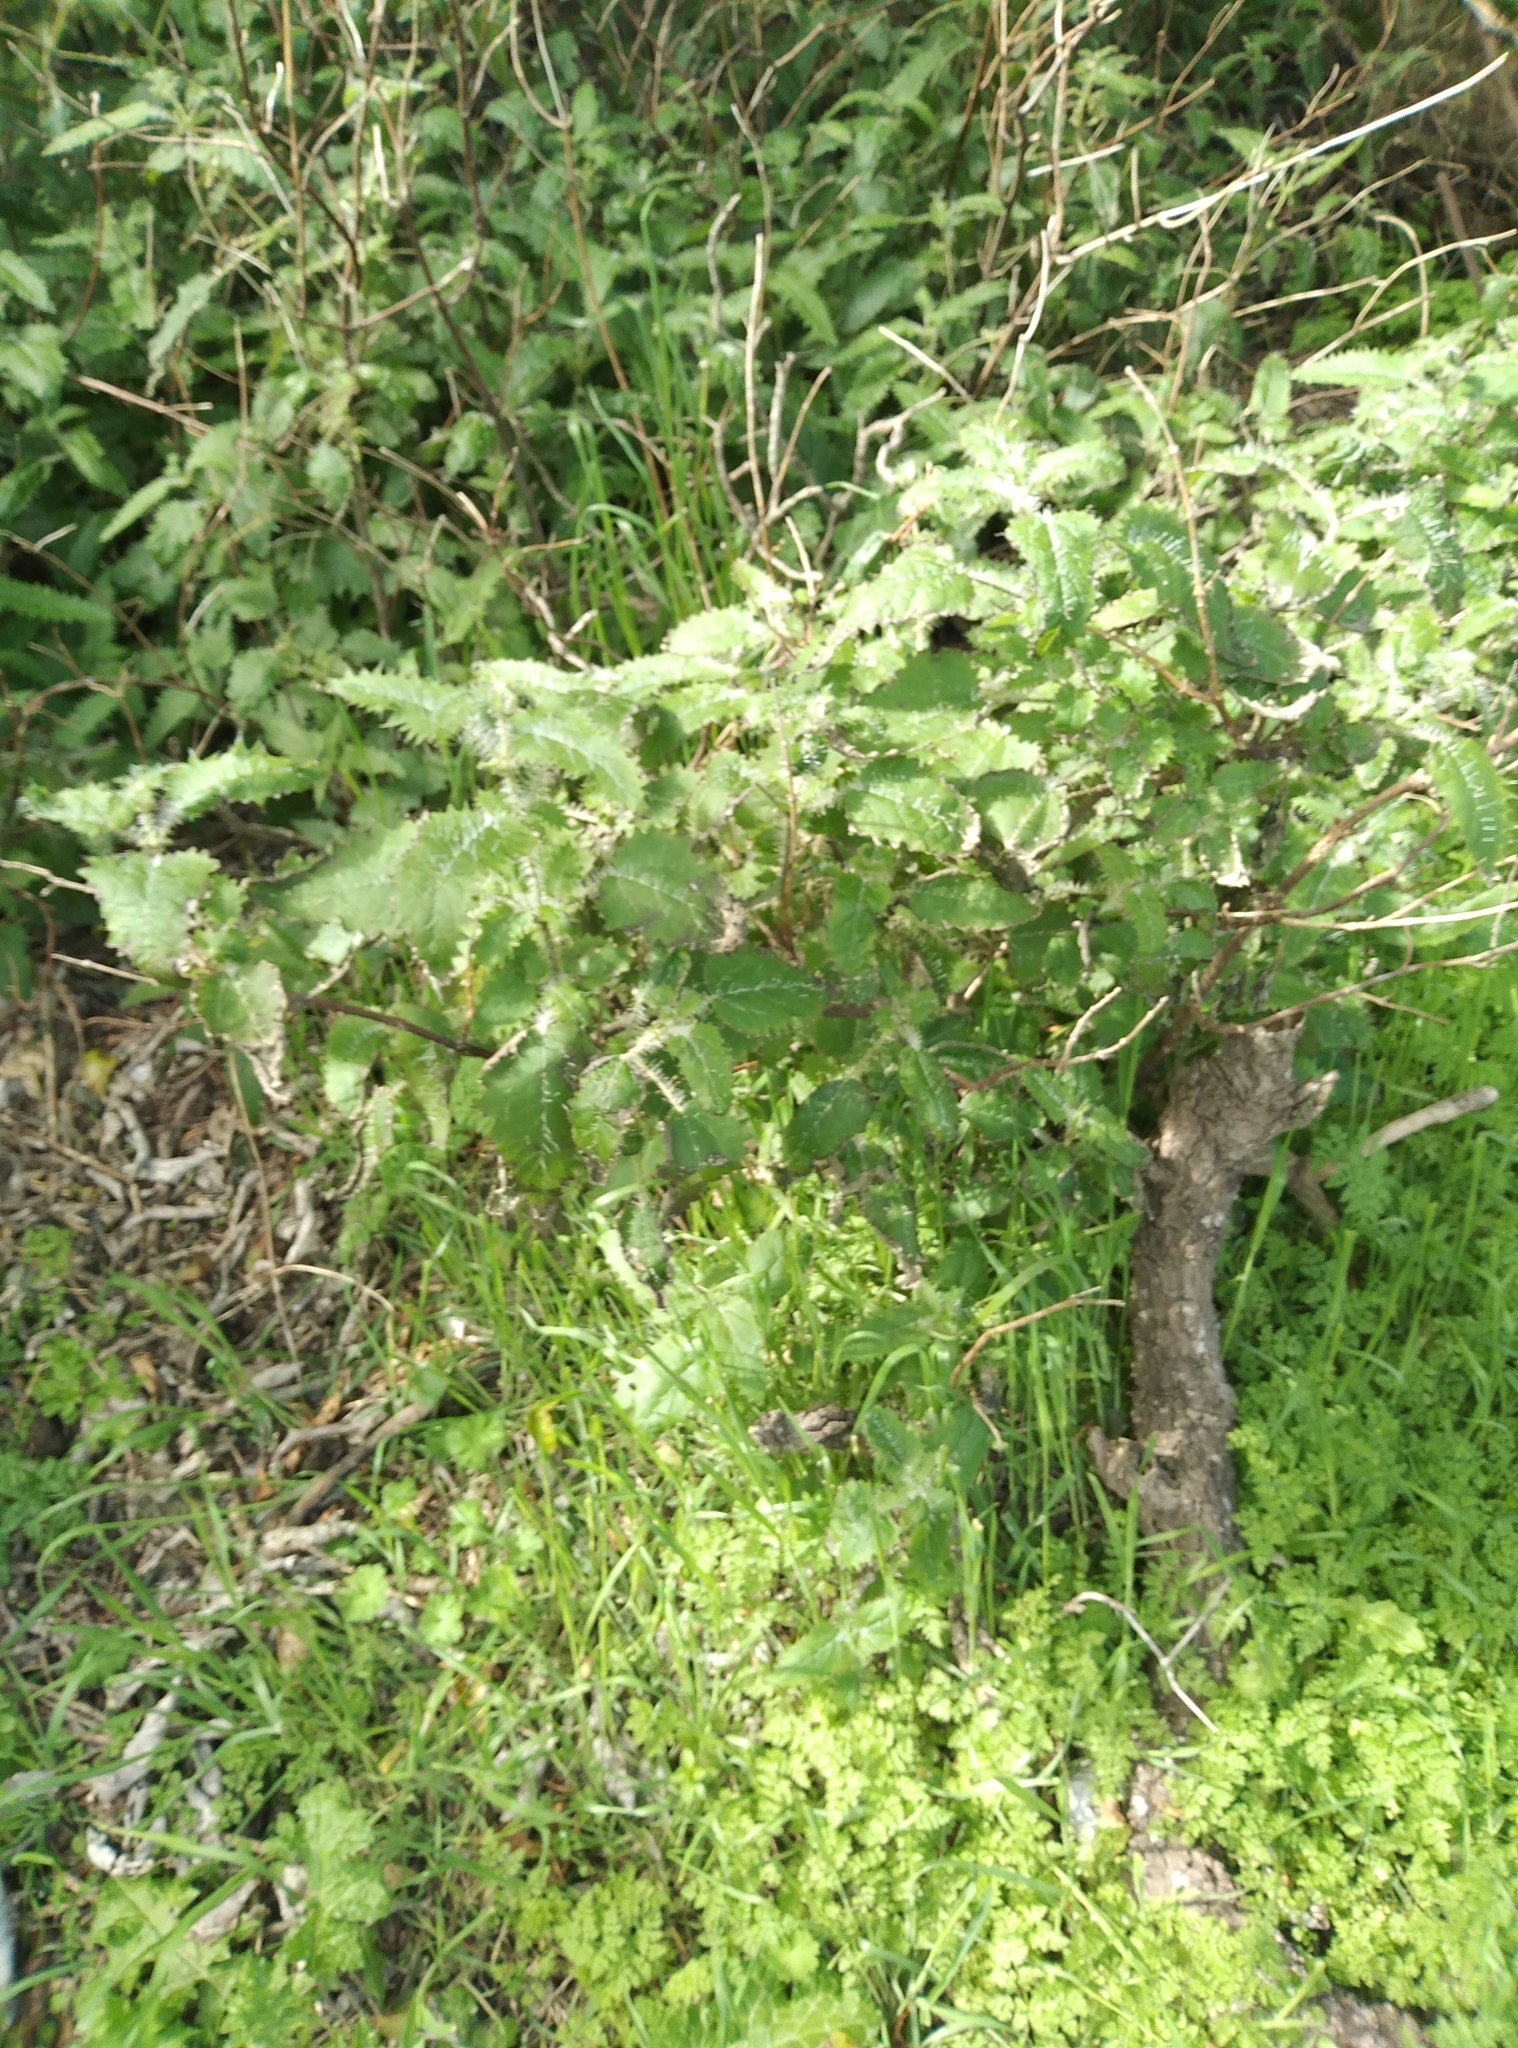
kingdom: Plantae
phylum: Tracheophyta
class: Magnoliopsida
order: Rosales
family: Urticaceae
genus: Urtica
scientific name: Urtica ferox
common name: Tree nettle
